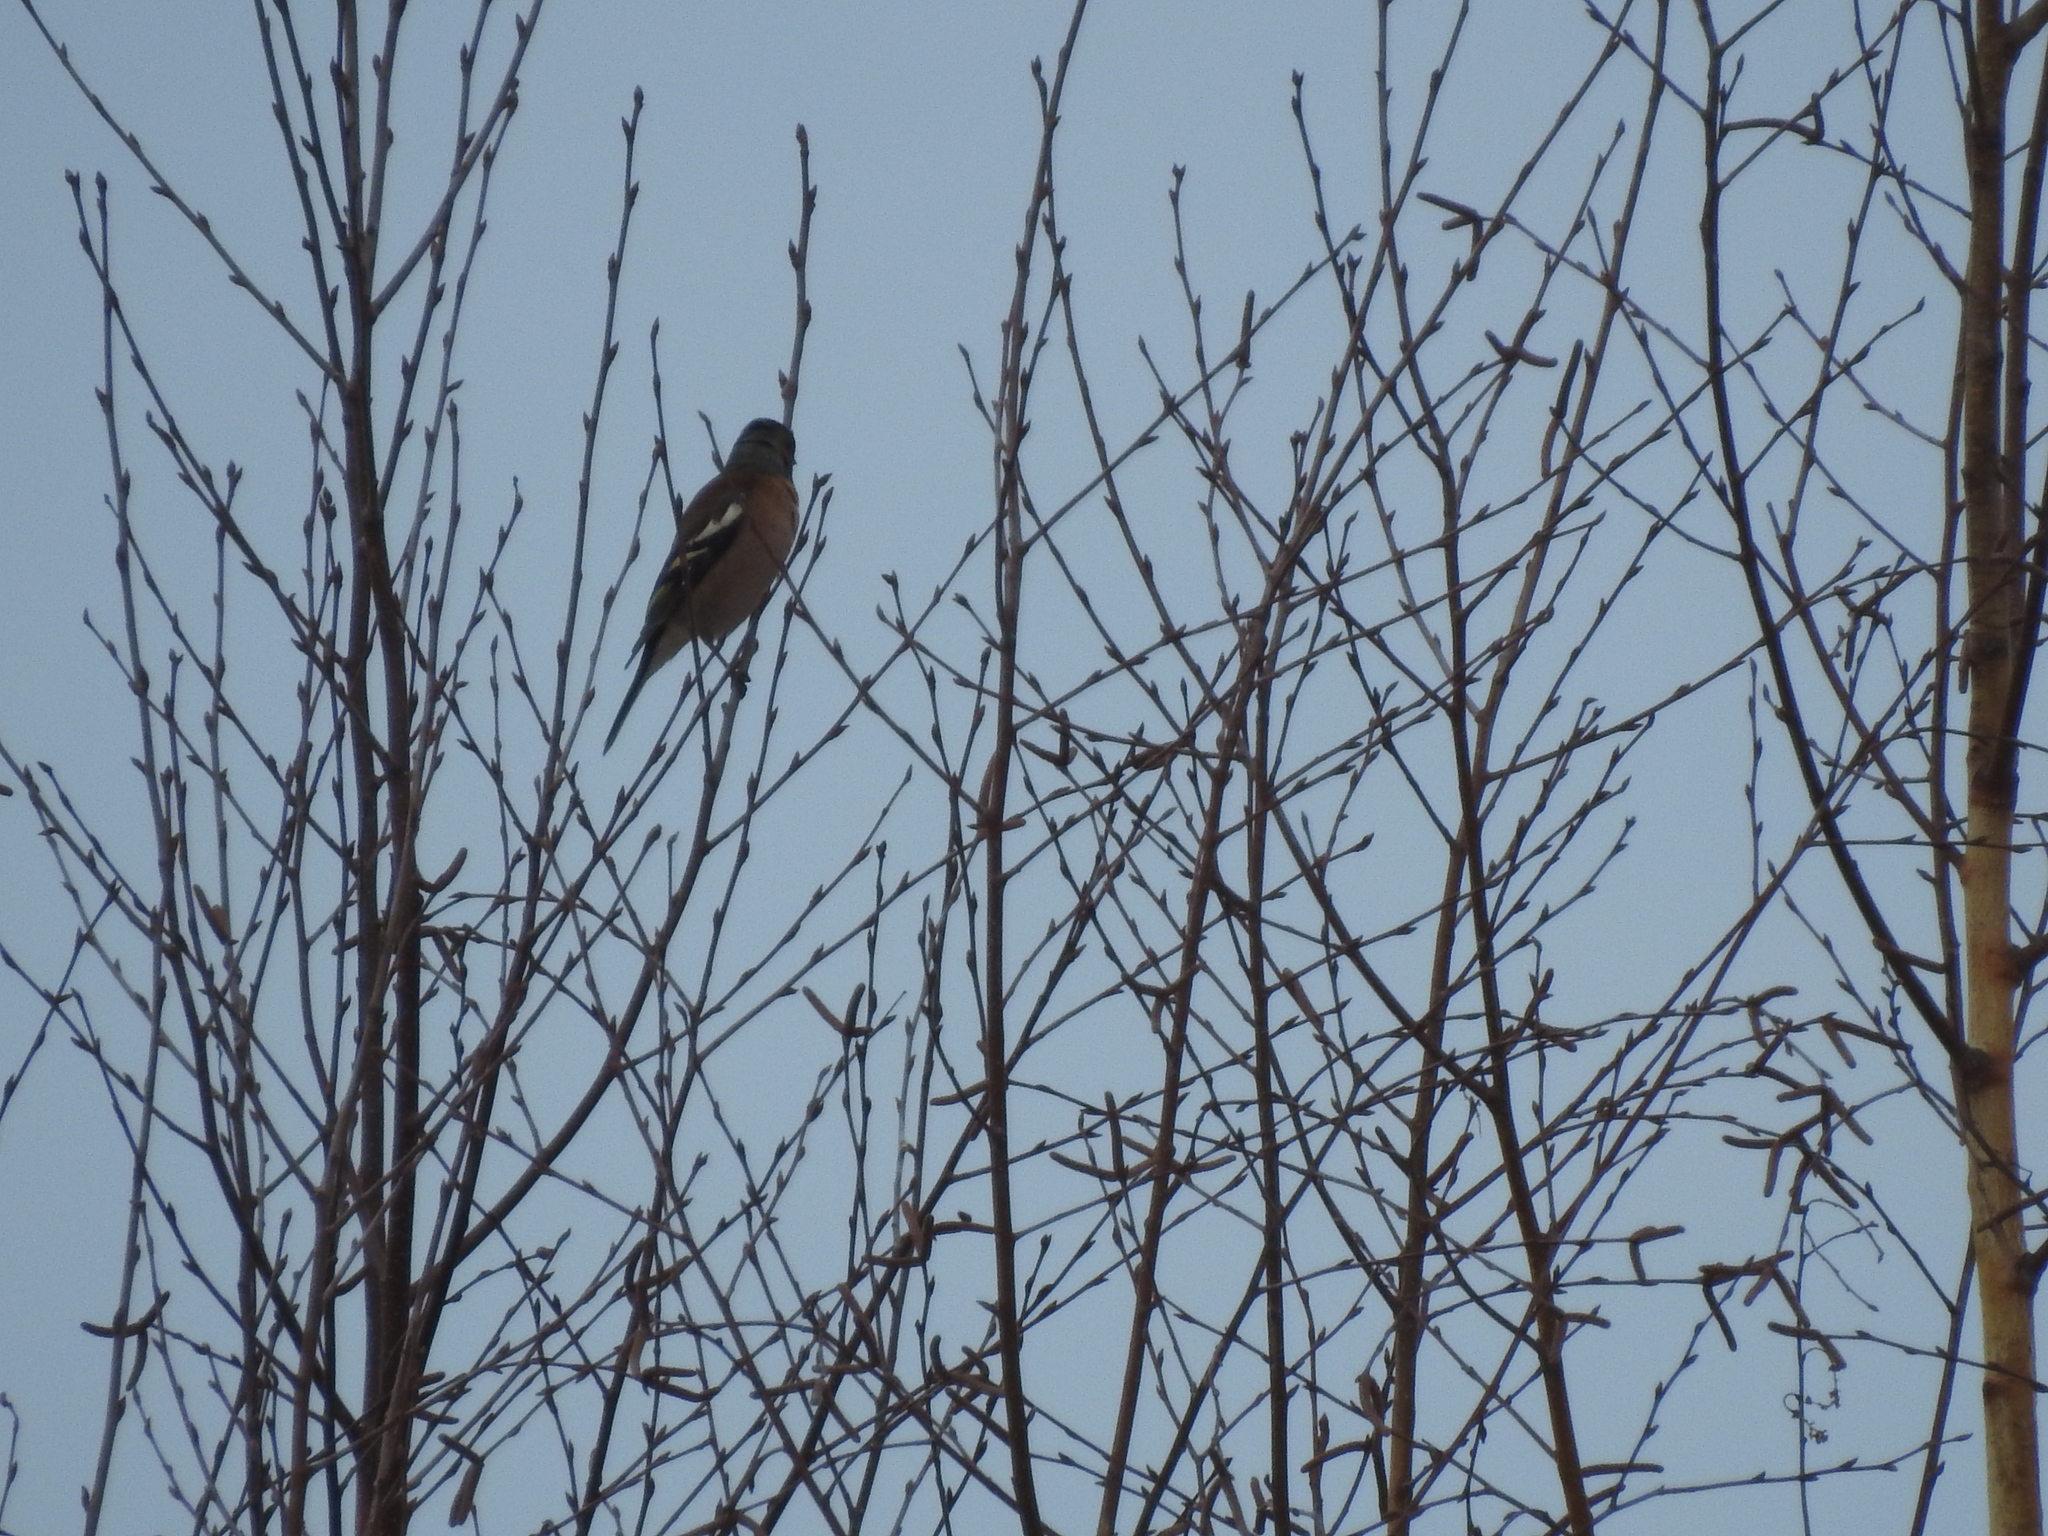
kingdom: Animalia
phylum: Chordata
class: Aves
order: Passeriformes
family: Fringillidae
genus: Fringilla
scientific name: Fringilla coelebs
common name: Common chaffinch
